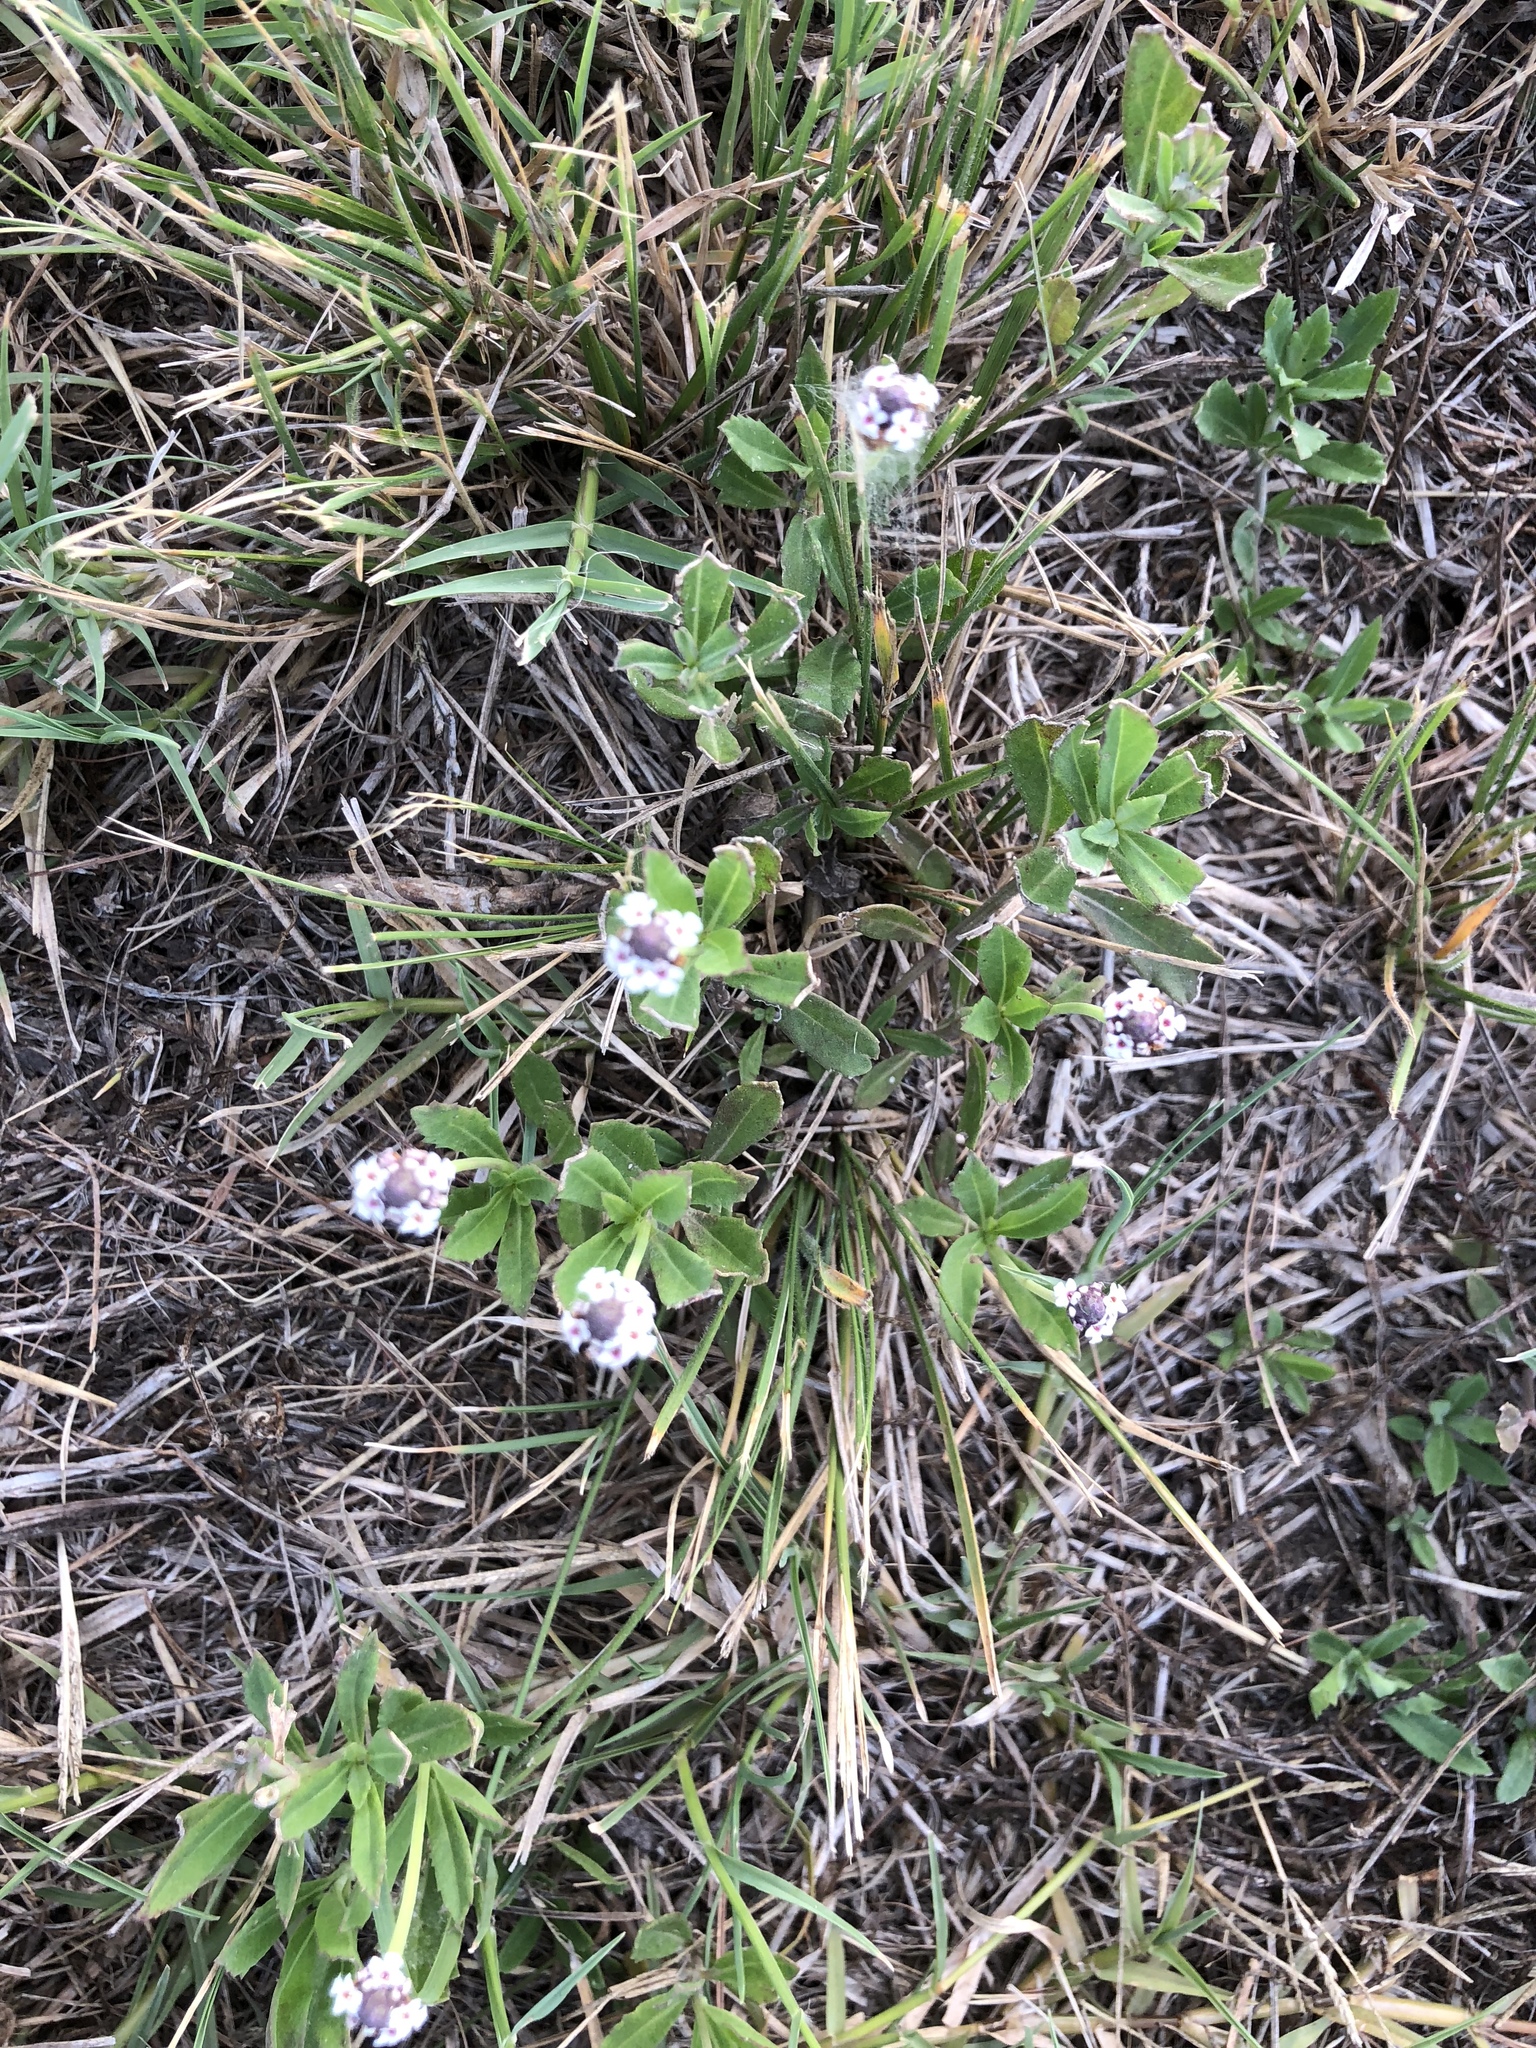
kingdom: Plantae
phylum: Tracheophyta
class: Magnoliopsida
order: Lamiales
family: Verbenaceae
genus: Phyla
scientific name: Phyla nodiflora
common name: Frogfruit
